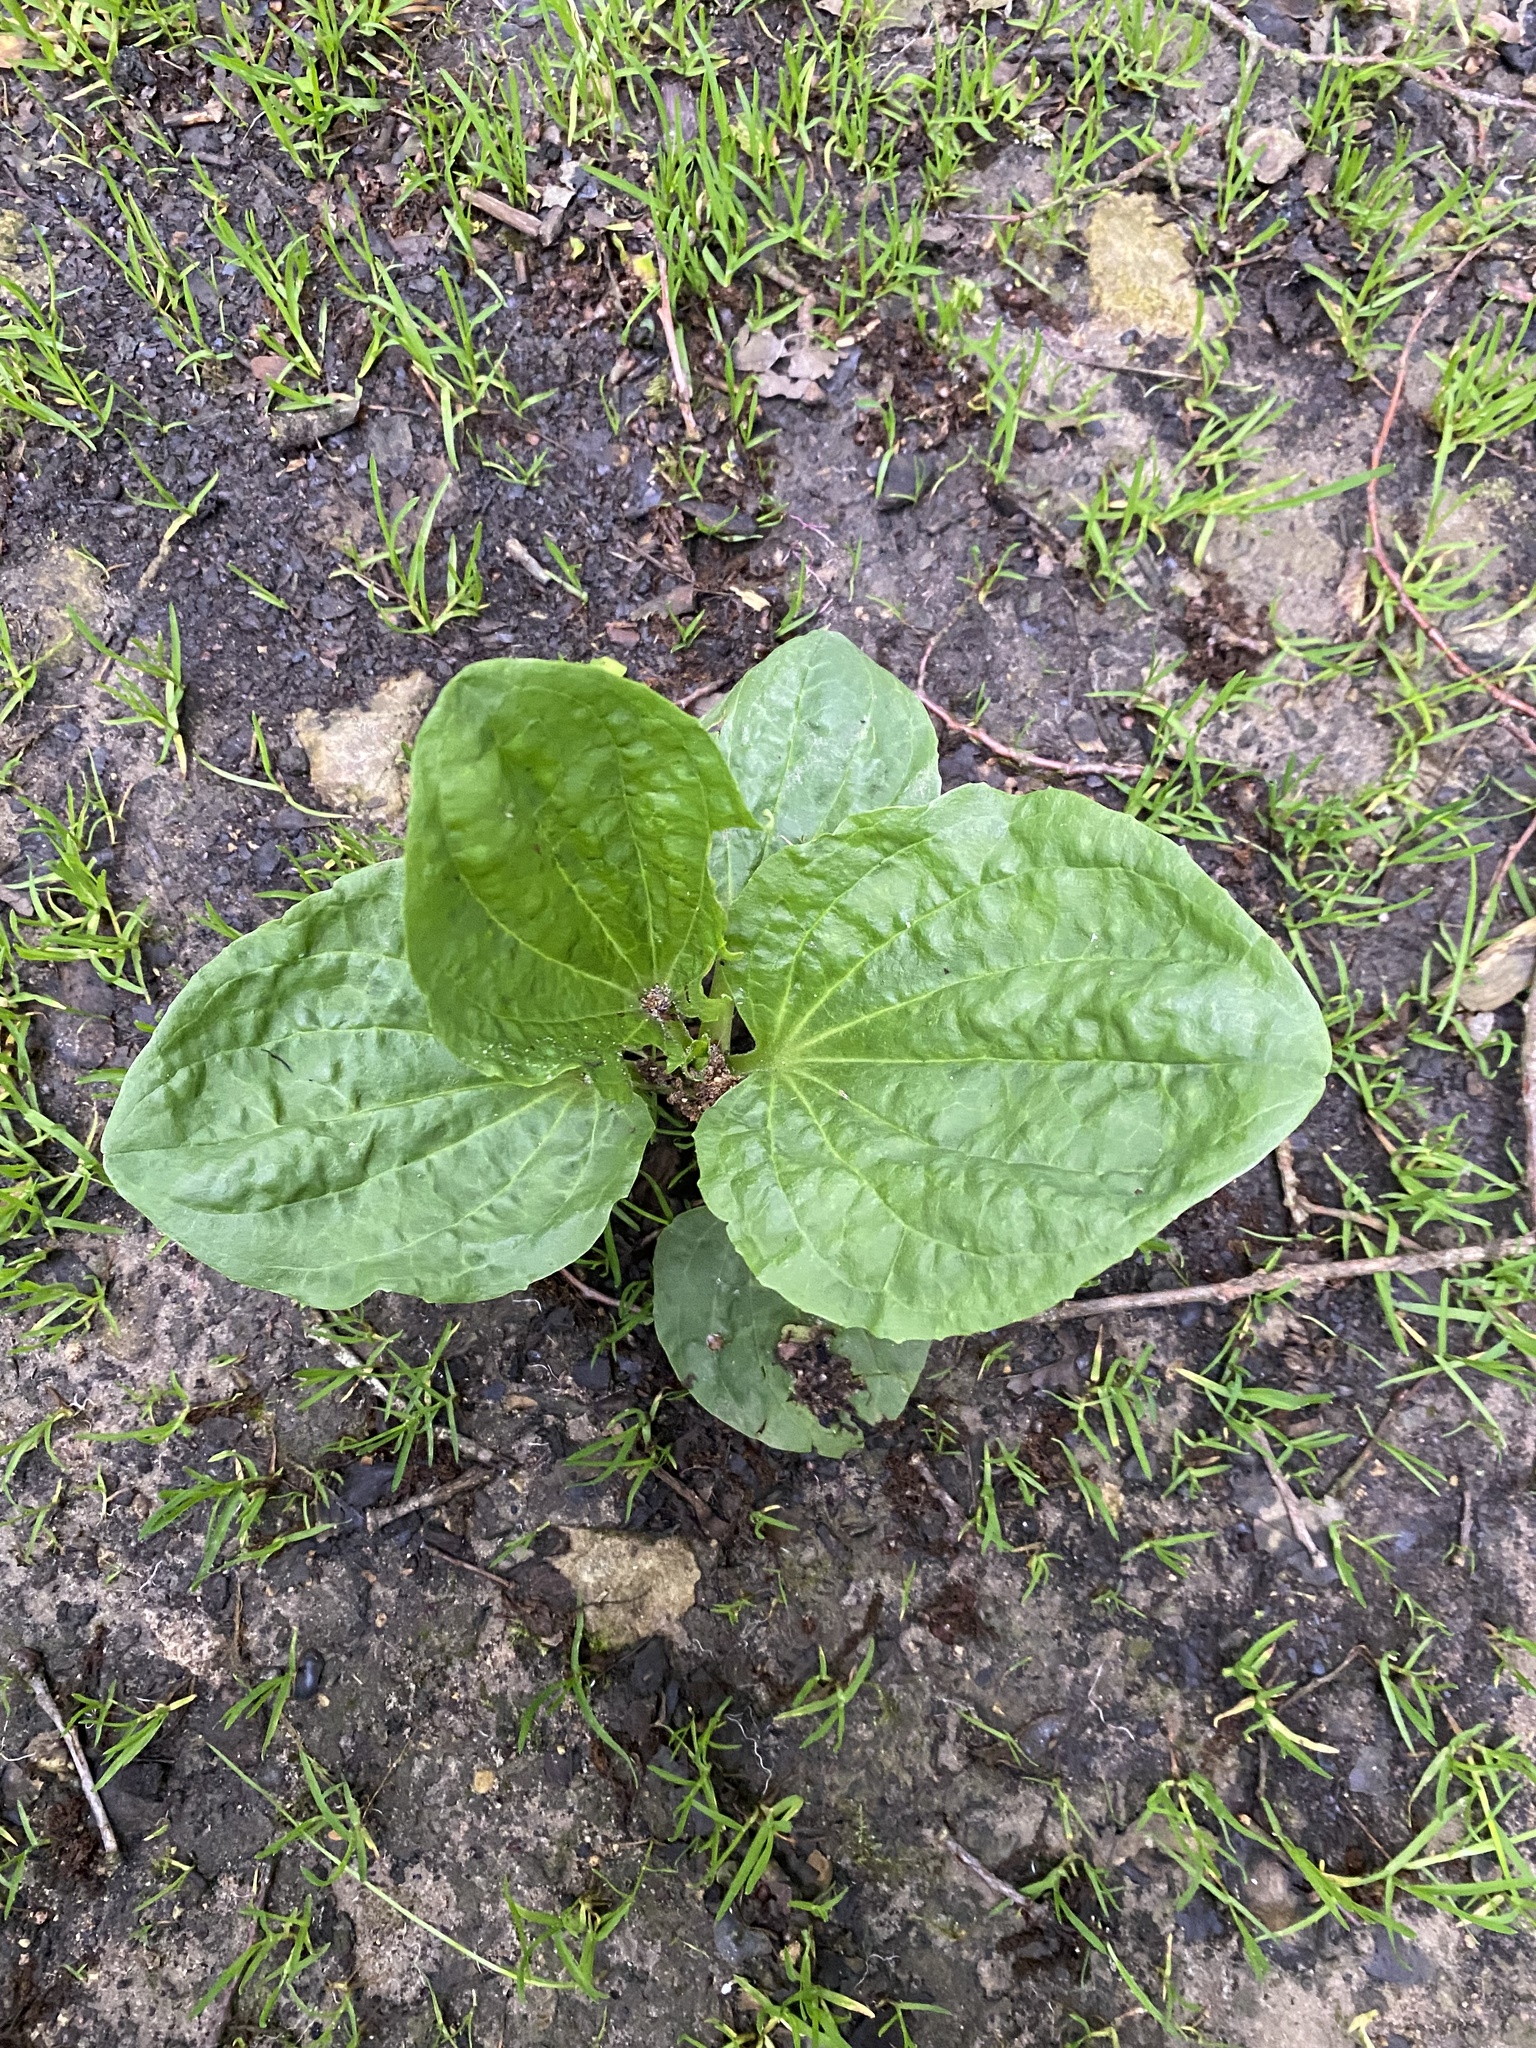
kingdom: Plantae
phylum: Tracheophyta
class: Magnoliopsida
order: Lamiales
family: Plantaginaceae
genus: Plantago
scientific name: Plantago major
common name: Common plantain
